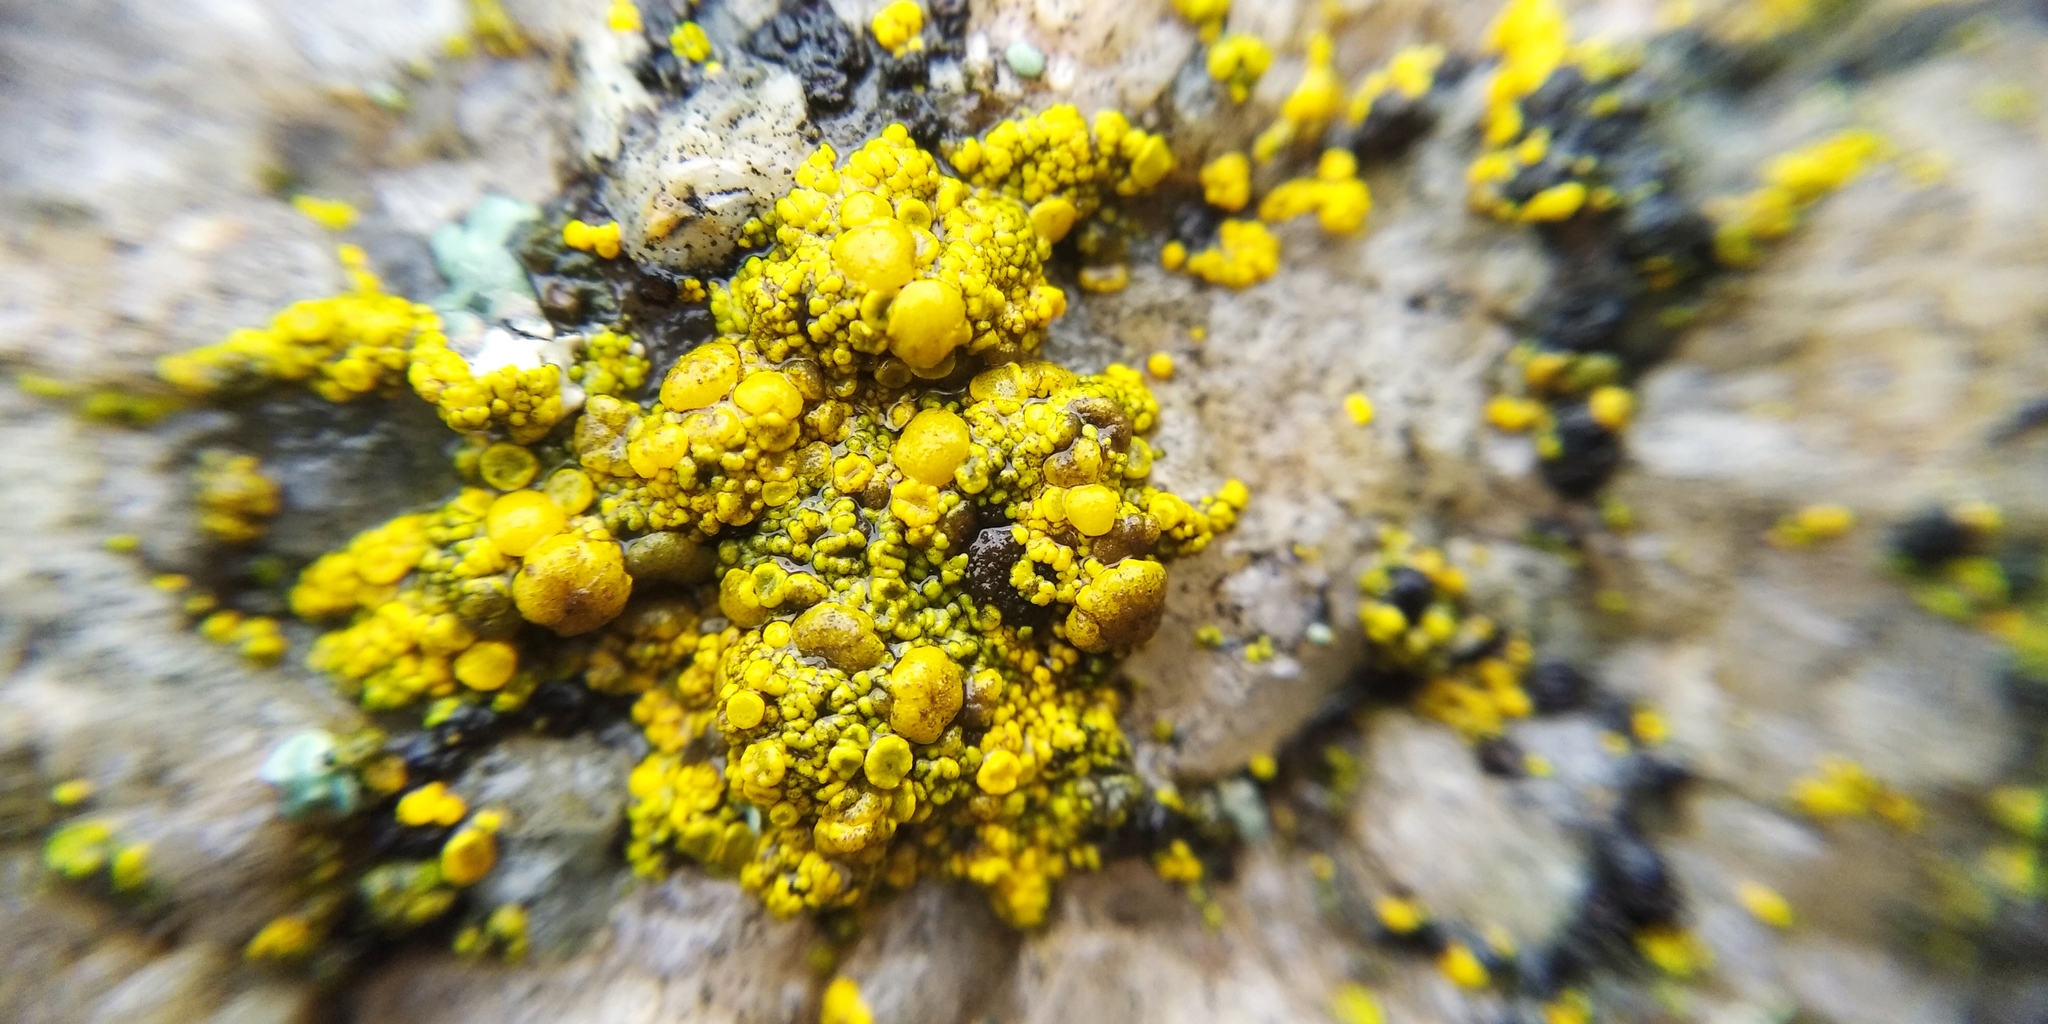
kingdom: Fungi
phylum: Ascomycota
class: Candelariomycetes
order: Candelariales
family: Candelariaceae
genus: Candelariella
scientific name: Candelariella vitellina
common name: Common goldspeck
